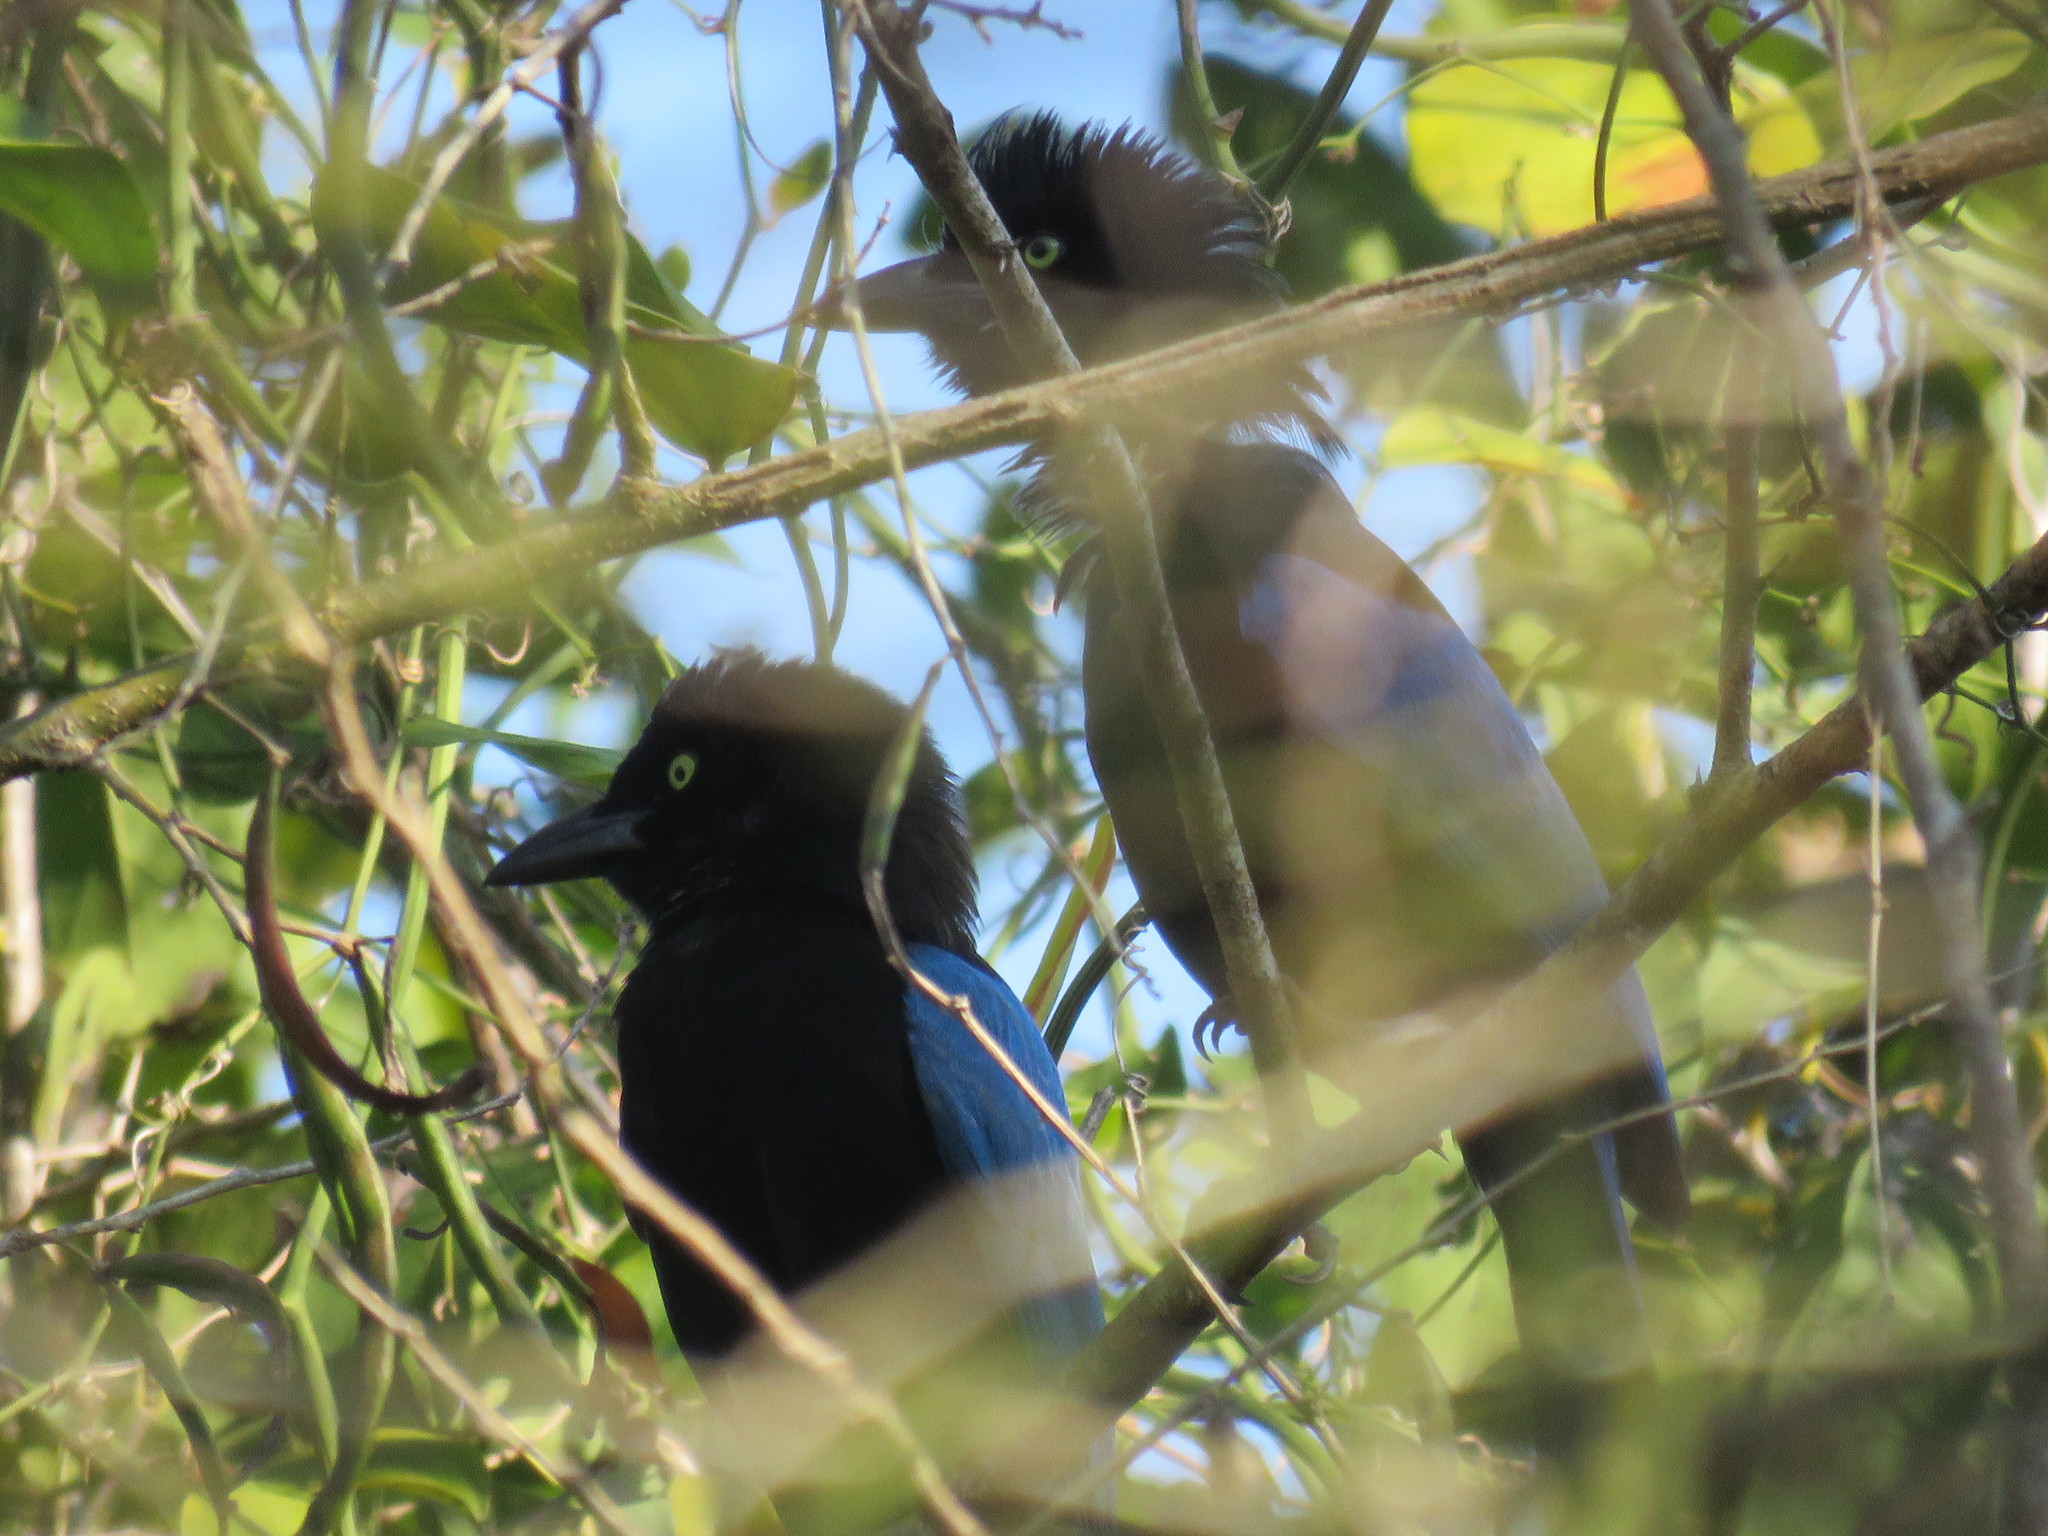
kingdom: Animalia
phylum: Chordata
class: Aves
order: Passeriformes
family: Corvidae
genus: Cyanocorax
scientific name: Cyanocorax sanblasianus
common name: San blas jay
